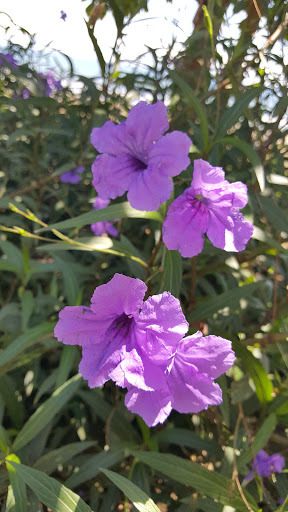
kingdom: Plantae
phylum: Tracheophyta
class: Magnoliopsida
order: Lamiales
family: Acanthaceae
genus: Ruellia
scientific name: Ruellia simplex
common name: Softseed wild petunia
